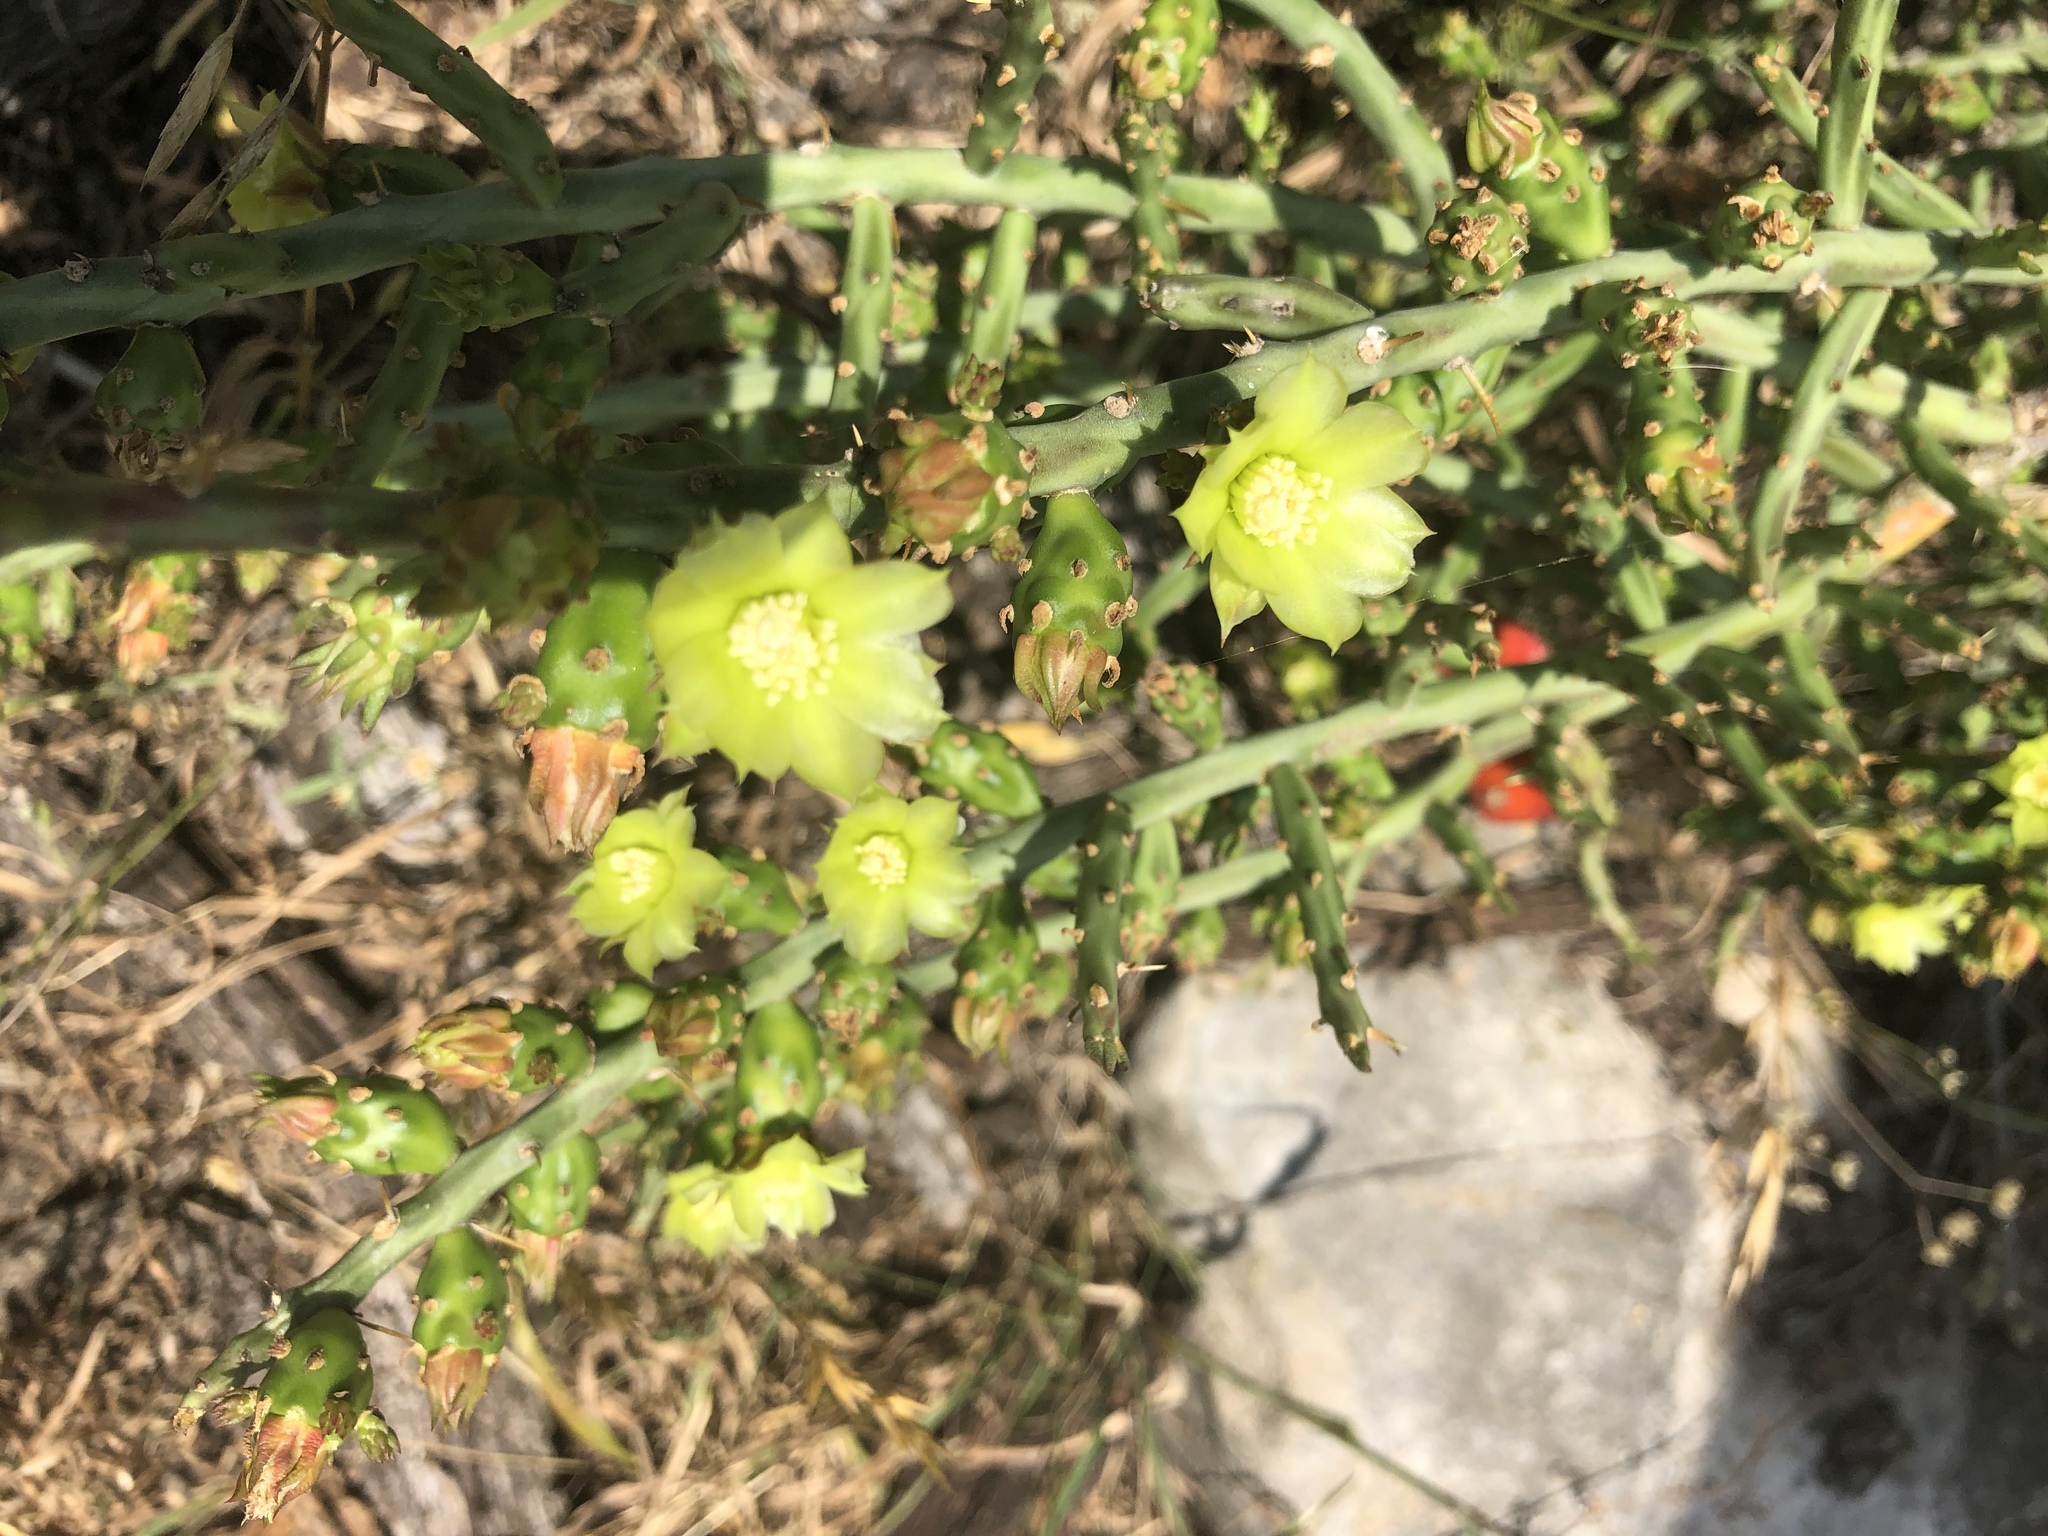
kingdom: Plantae
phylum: Tracheophyta
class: Magnoliopsida
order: Caryophyllales
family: Cactaceae
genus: Cylindropuntia
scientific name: Cylindropuntia leptocaulis
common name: Christmas cactus
